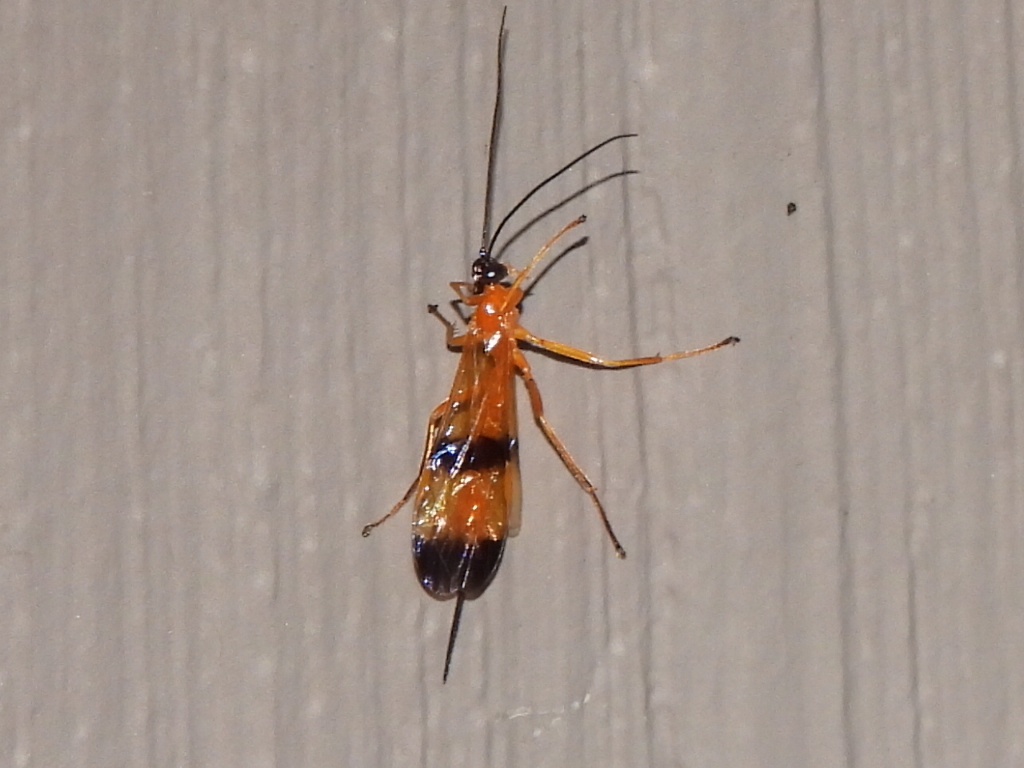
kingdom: Animalia
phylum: Arthropoda
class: Insecta
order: Hymenoptera
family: Ichneumonidae
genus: Acrotaphus
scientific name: Acrotaphus wiltii
